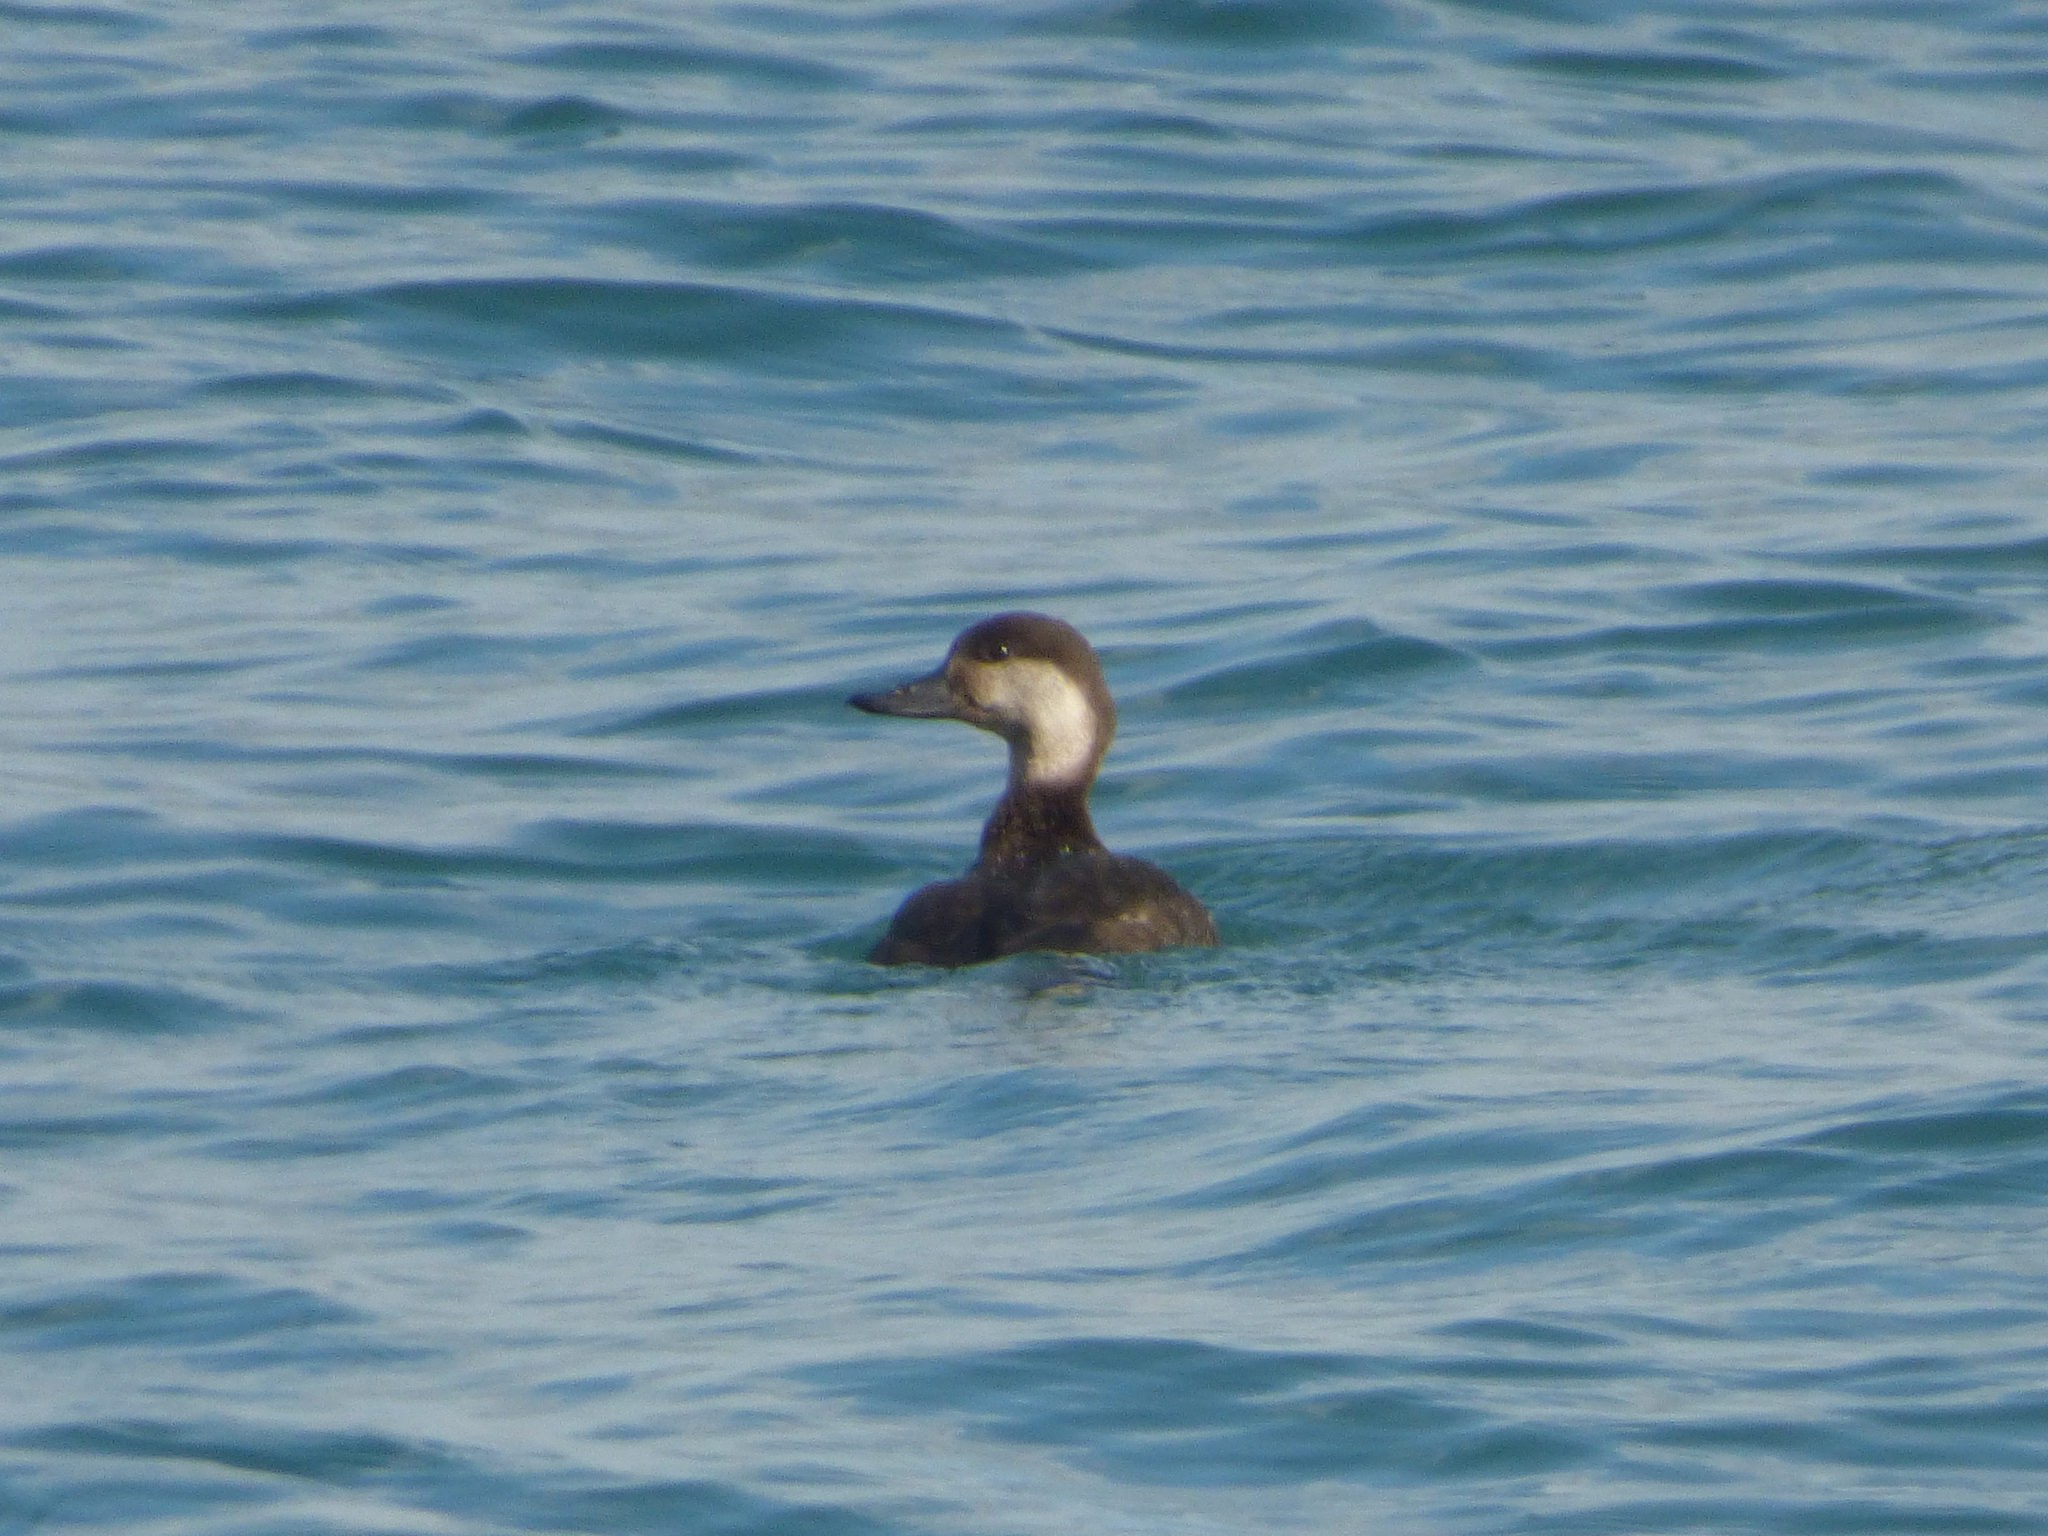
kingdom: Animalia
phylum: Chordata
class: Aves
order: Anseriformes
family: Anatidae
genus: Melanitta
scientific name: Melanitta americana
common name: Black scoter
